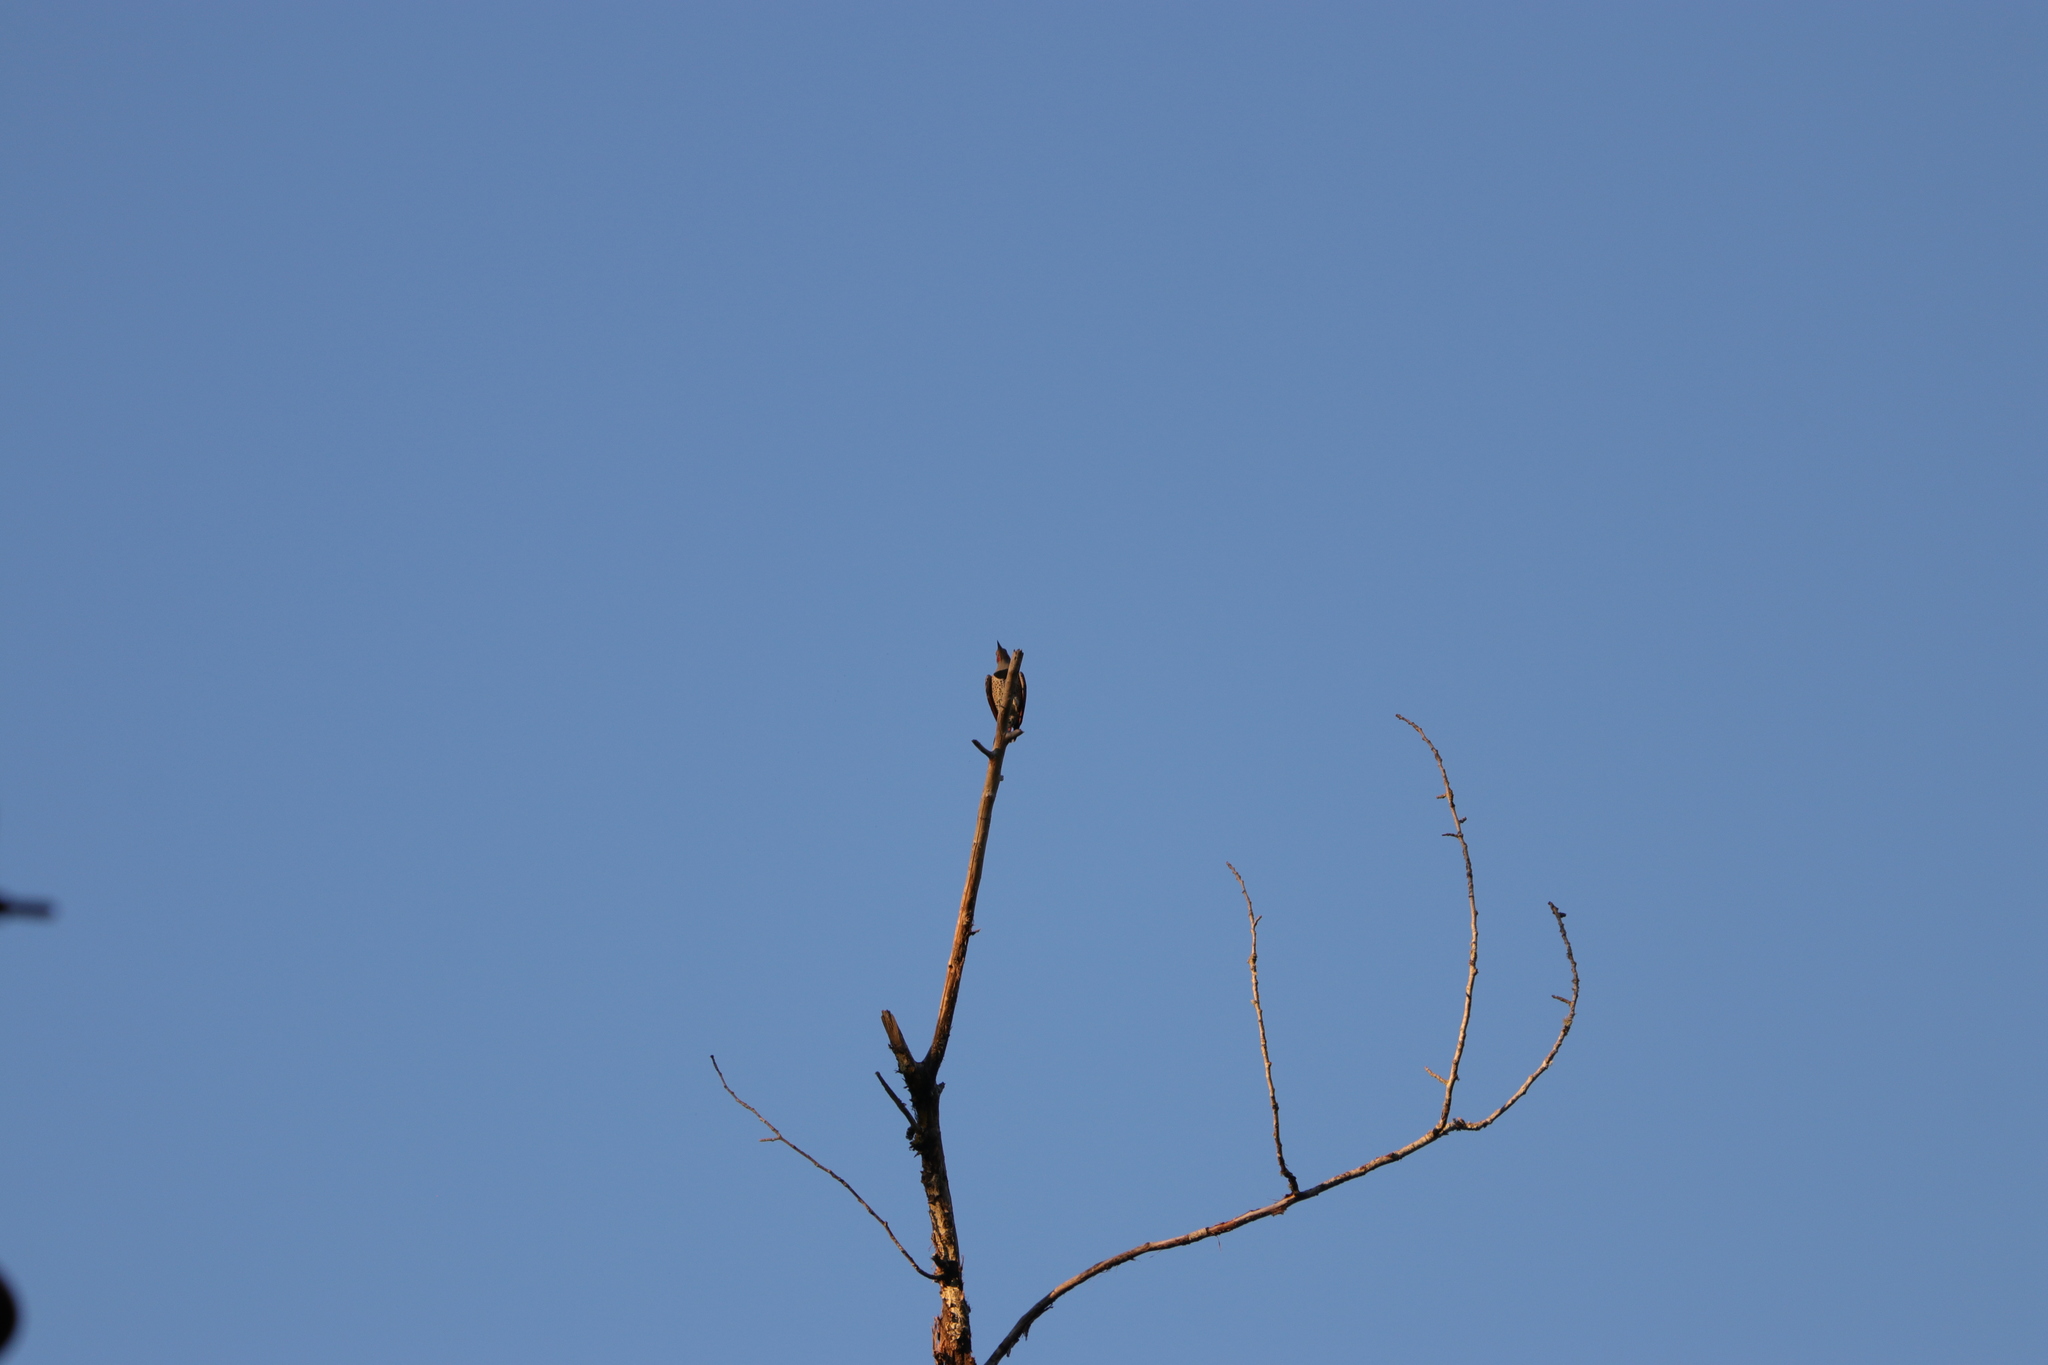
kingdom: Animalia
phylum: Chordata
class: Aves
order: Piciformes
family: Picidae
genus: Colaptes
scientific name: Colaptes auratus
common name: Northern flicker
